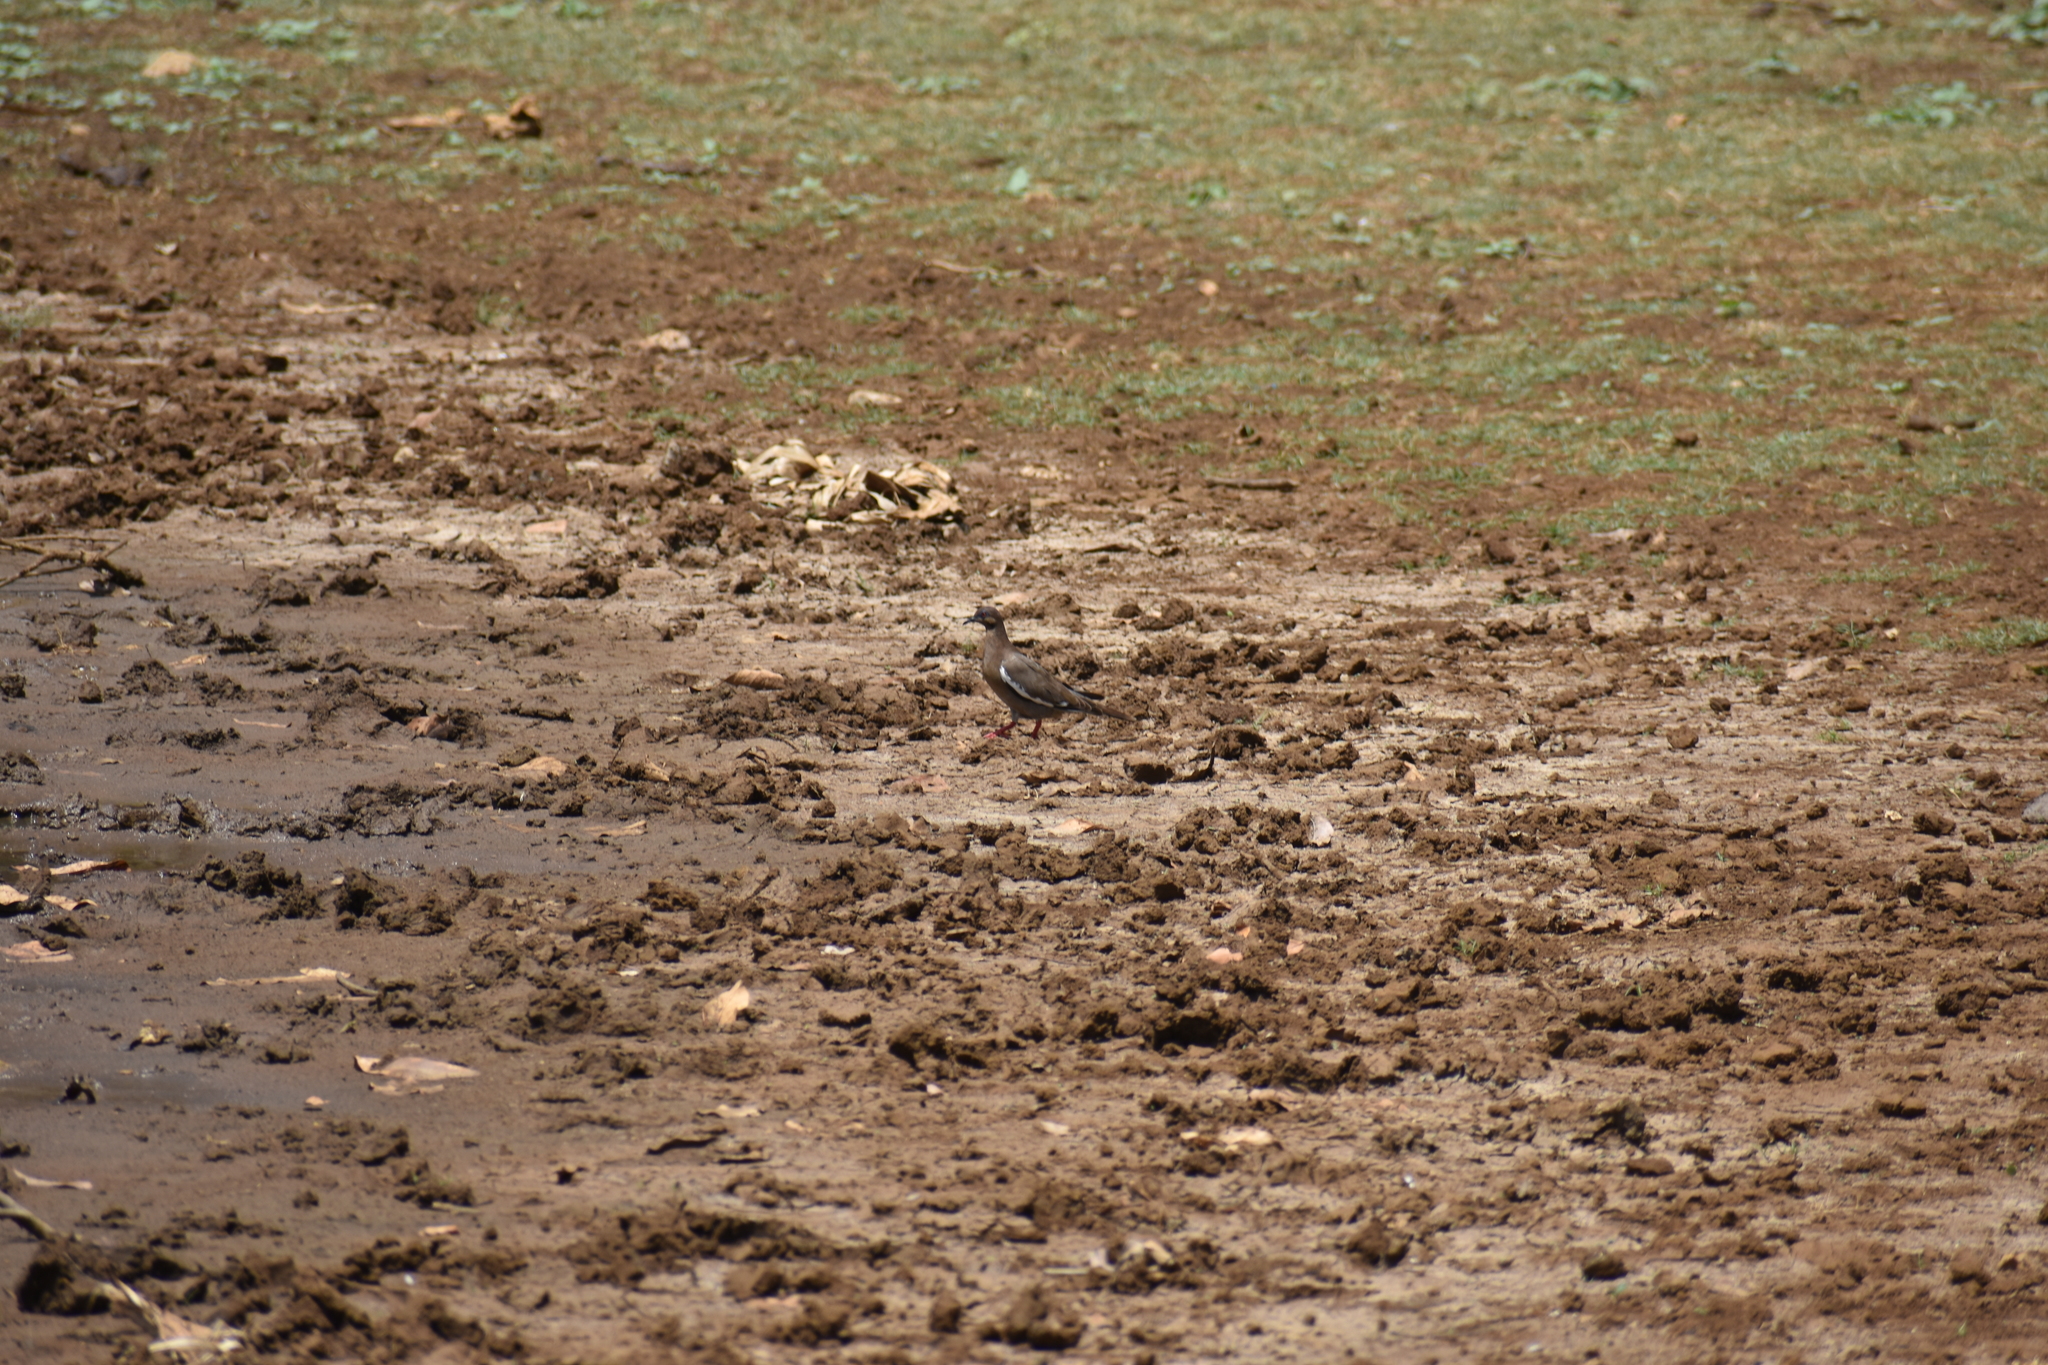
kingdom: Animalia
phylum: Chordata
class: Aves
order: Columbiformes
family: Columbidae
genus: Zenaida
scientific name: Zenaida asiatica
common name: White-winged dove
